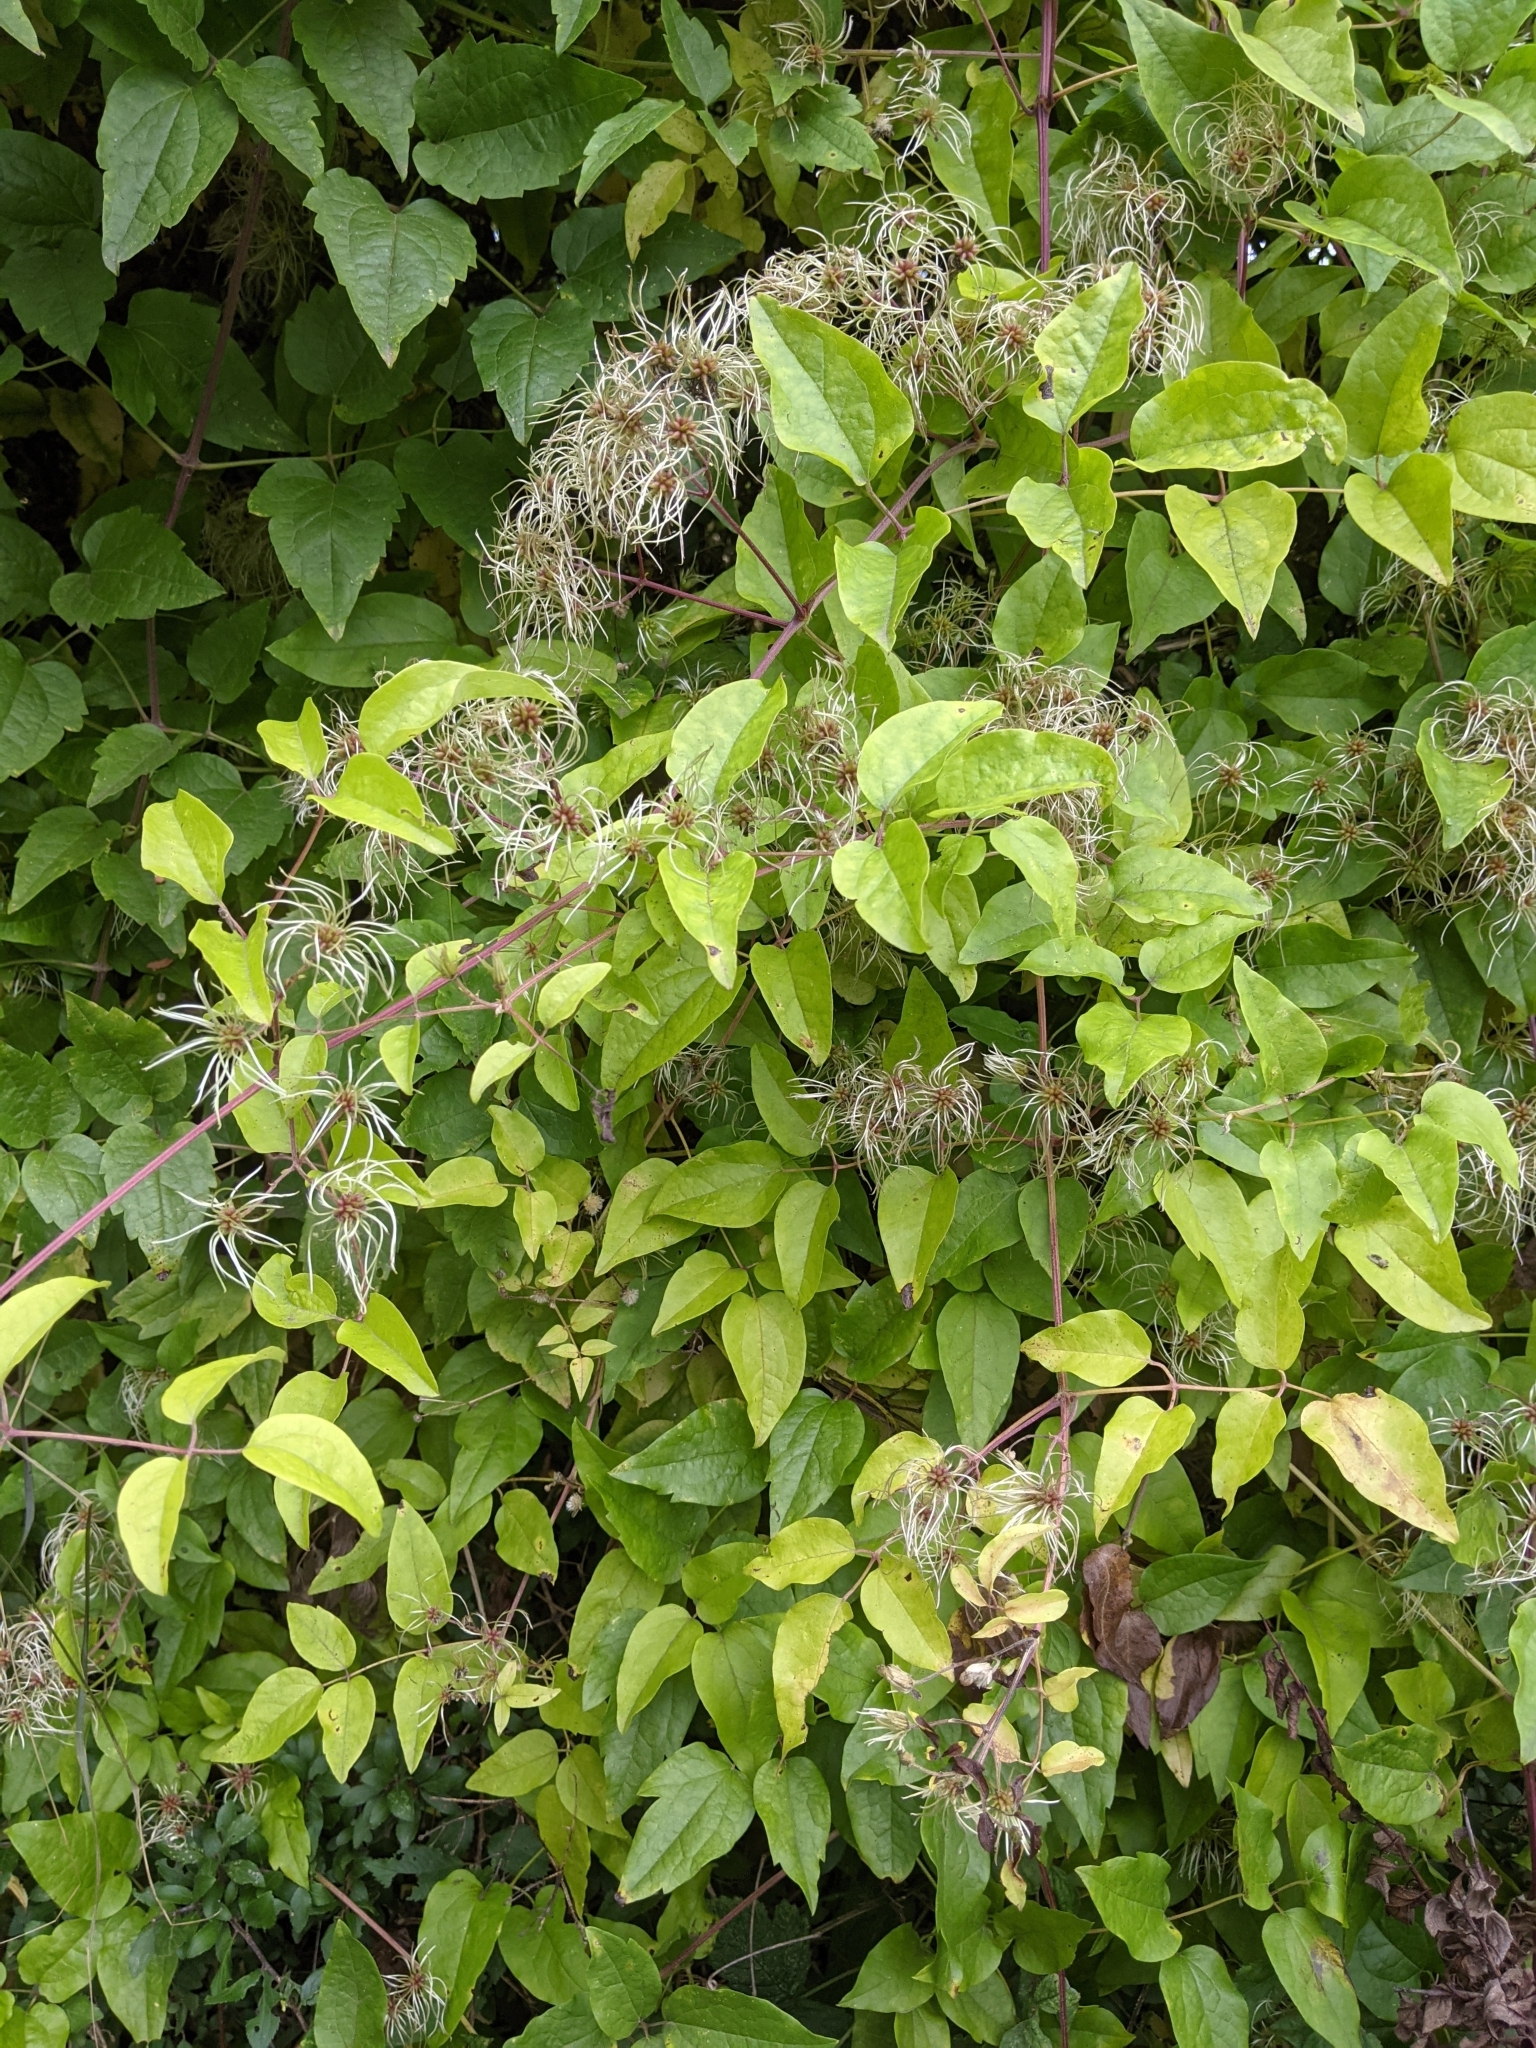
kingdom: Plantae
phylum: Tracheophyta
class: Magnoliopsida
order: Ranunculales
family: Ranunculaceae
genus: Clematis
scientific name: Clematis vitalba
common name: Evergreen clematis
